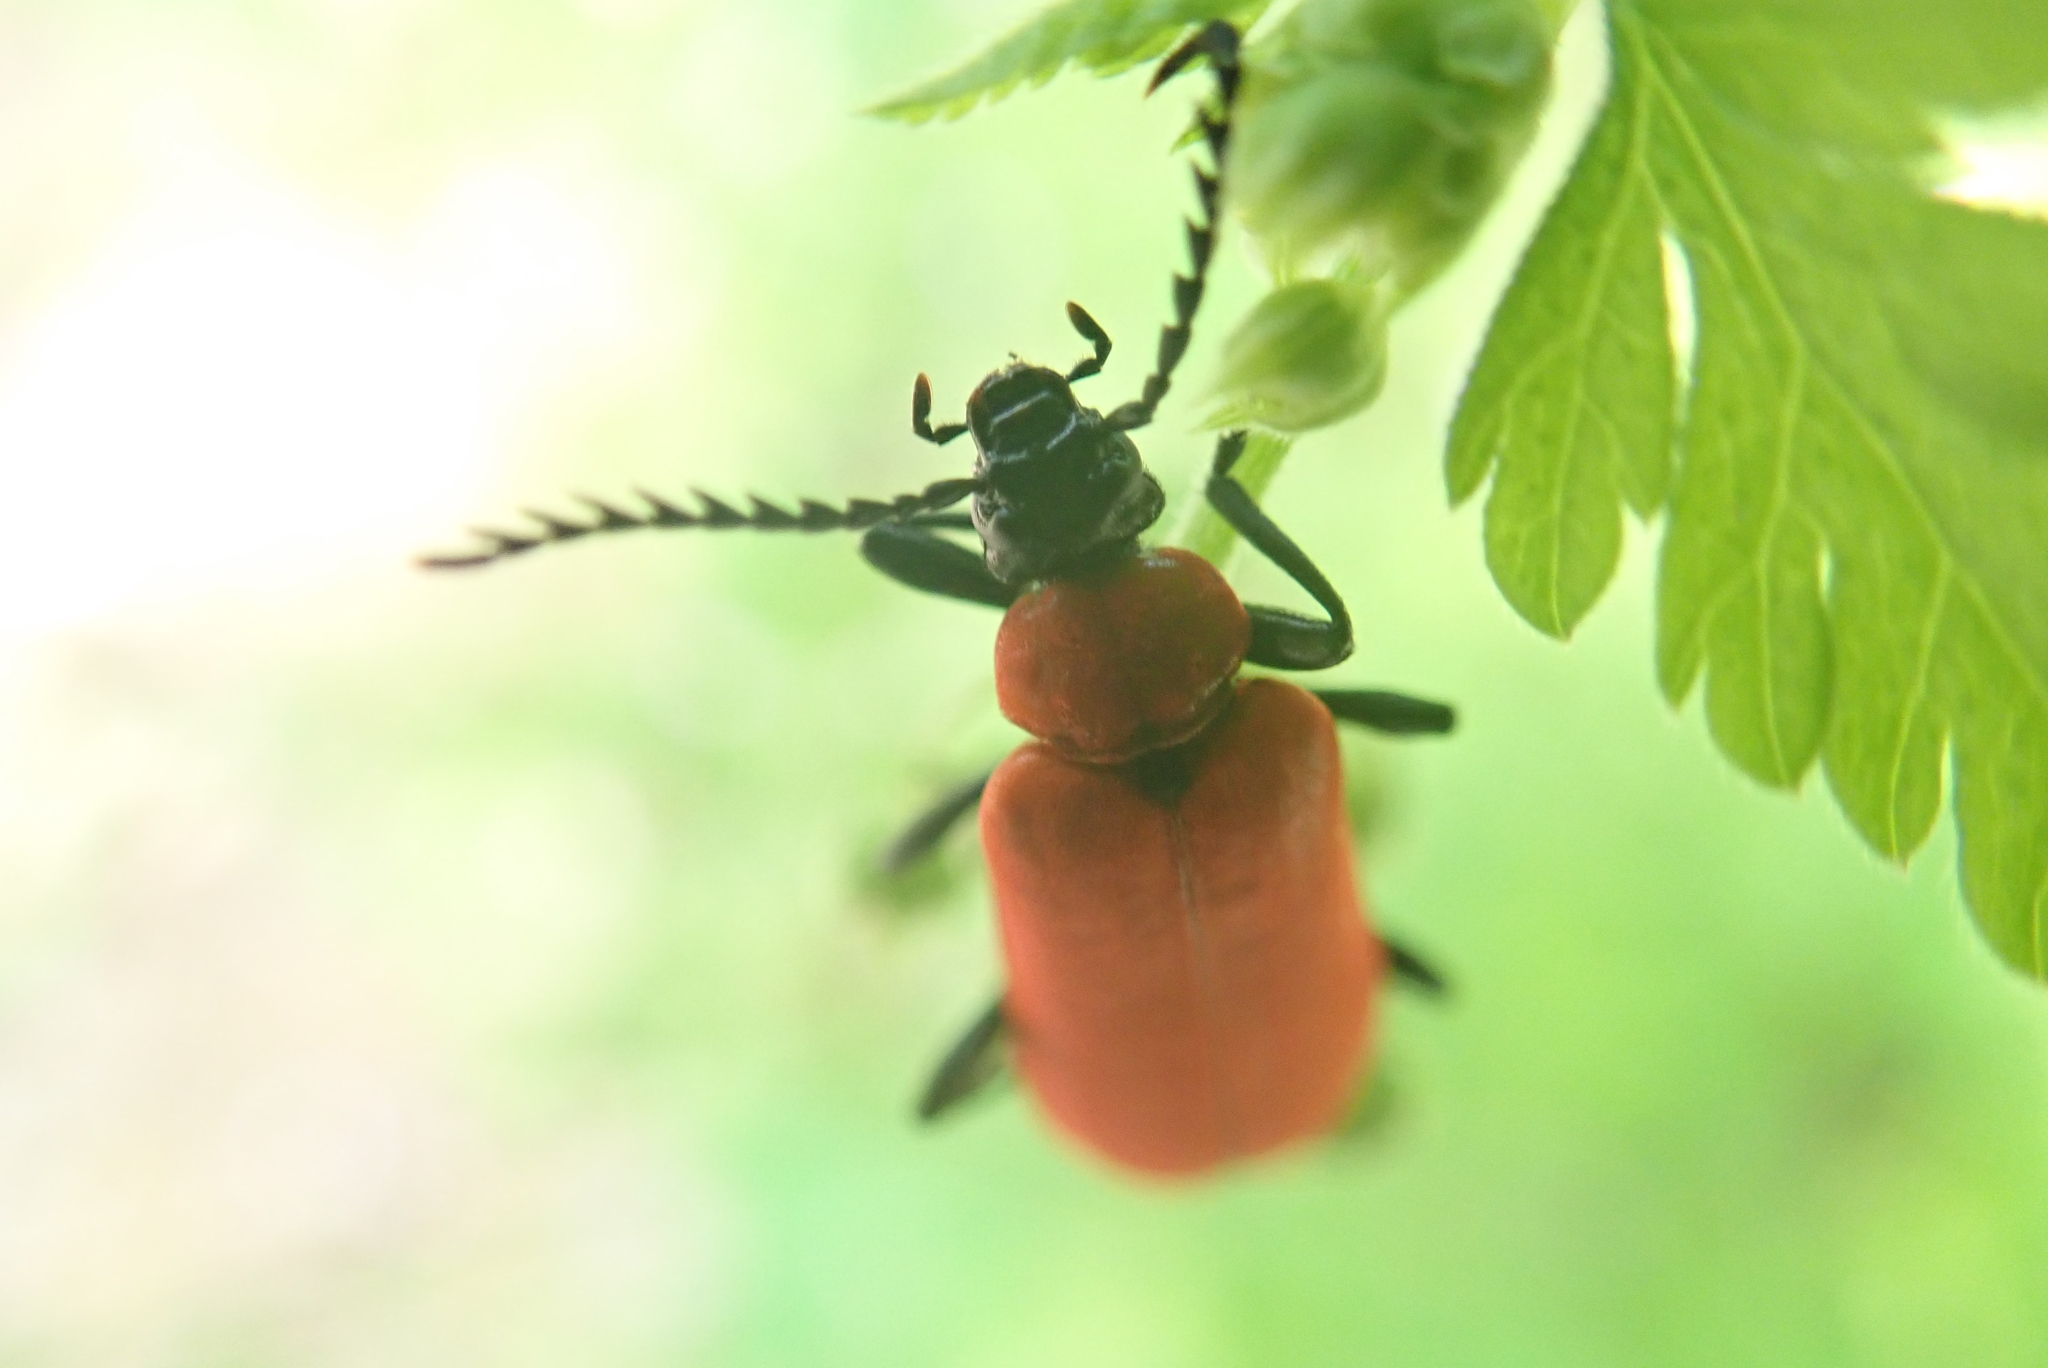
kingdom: Animalia
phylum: Arthropoda
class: Insecta
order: Coleoptera
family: Pyrochroidae
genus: Pyrochroa
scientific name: Pyrochroa coccinea
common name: Black-headed cardinal beetle
